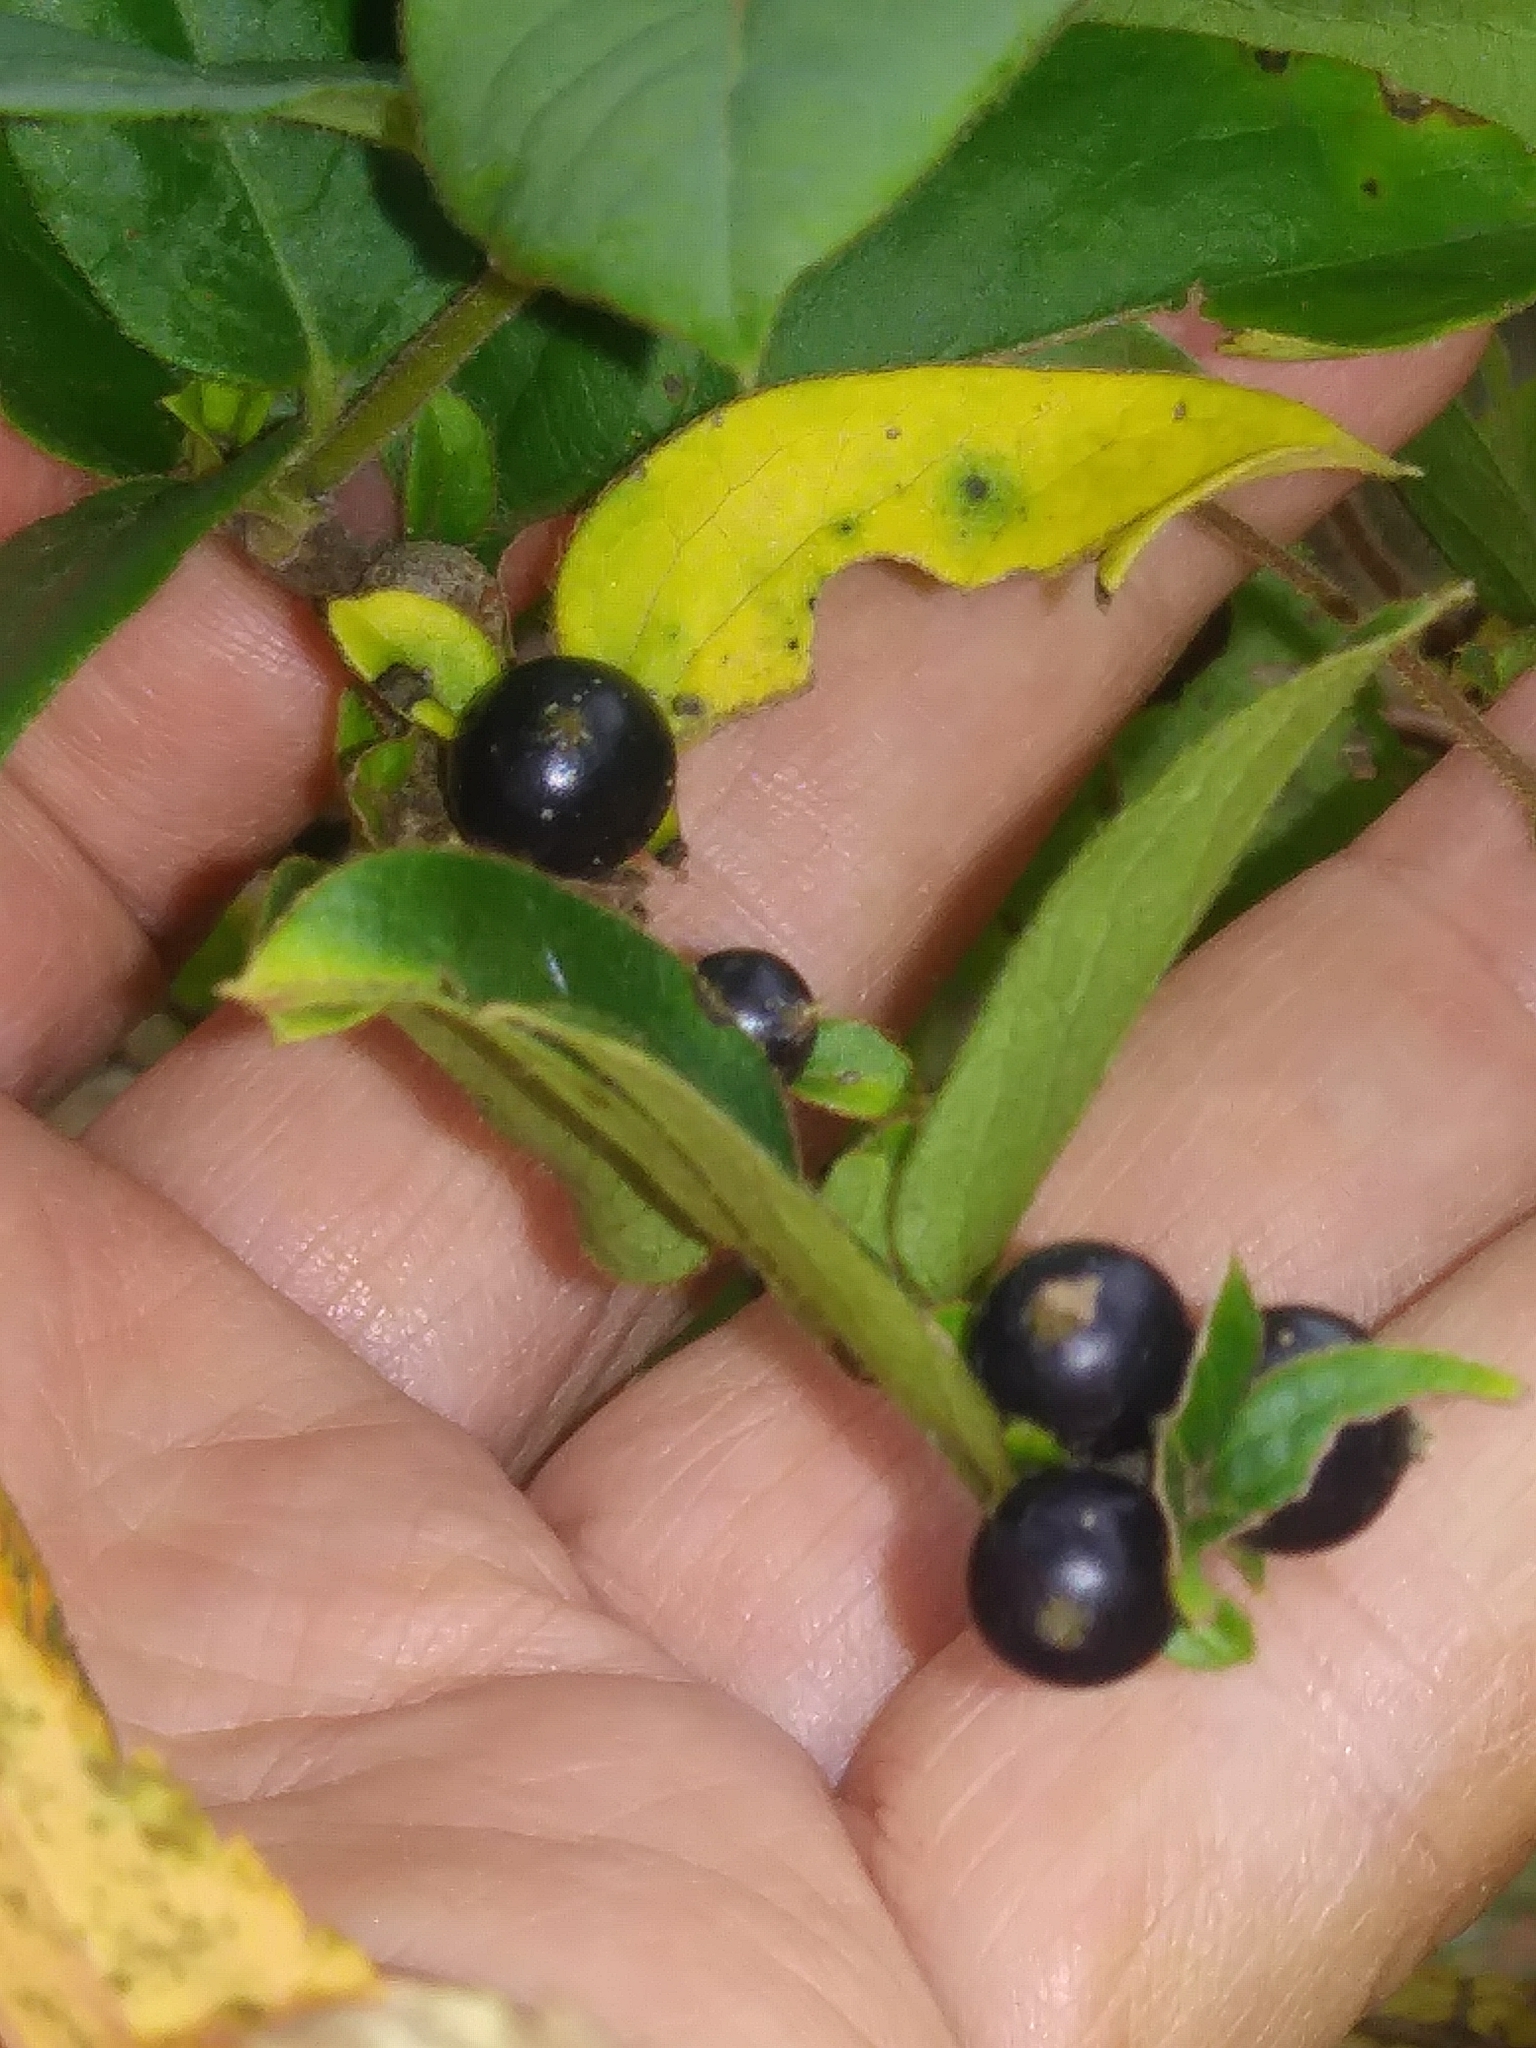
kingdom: Plantae
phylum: Tracheophyta
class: Magnoliopsida
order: Solanales
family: Solanaceae
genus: Solanum
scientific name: Solanum emulans
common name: Eastern black nightshade
